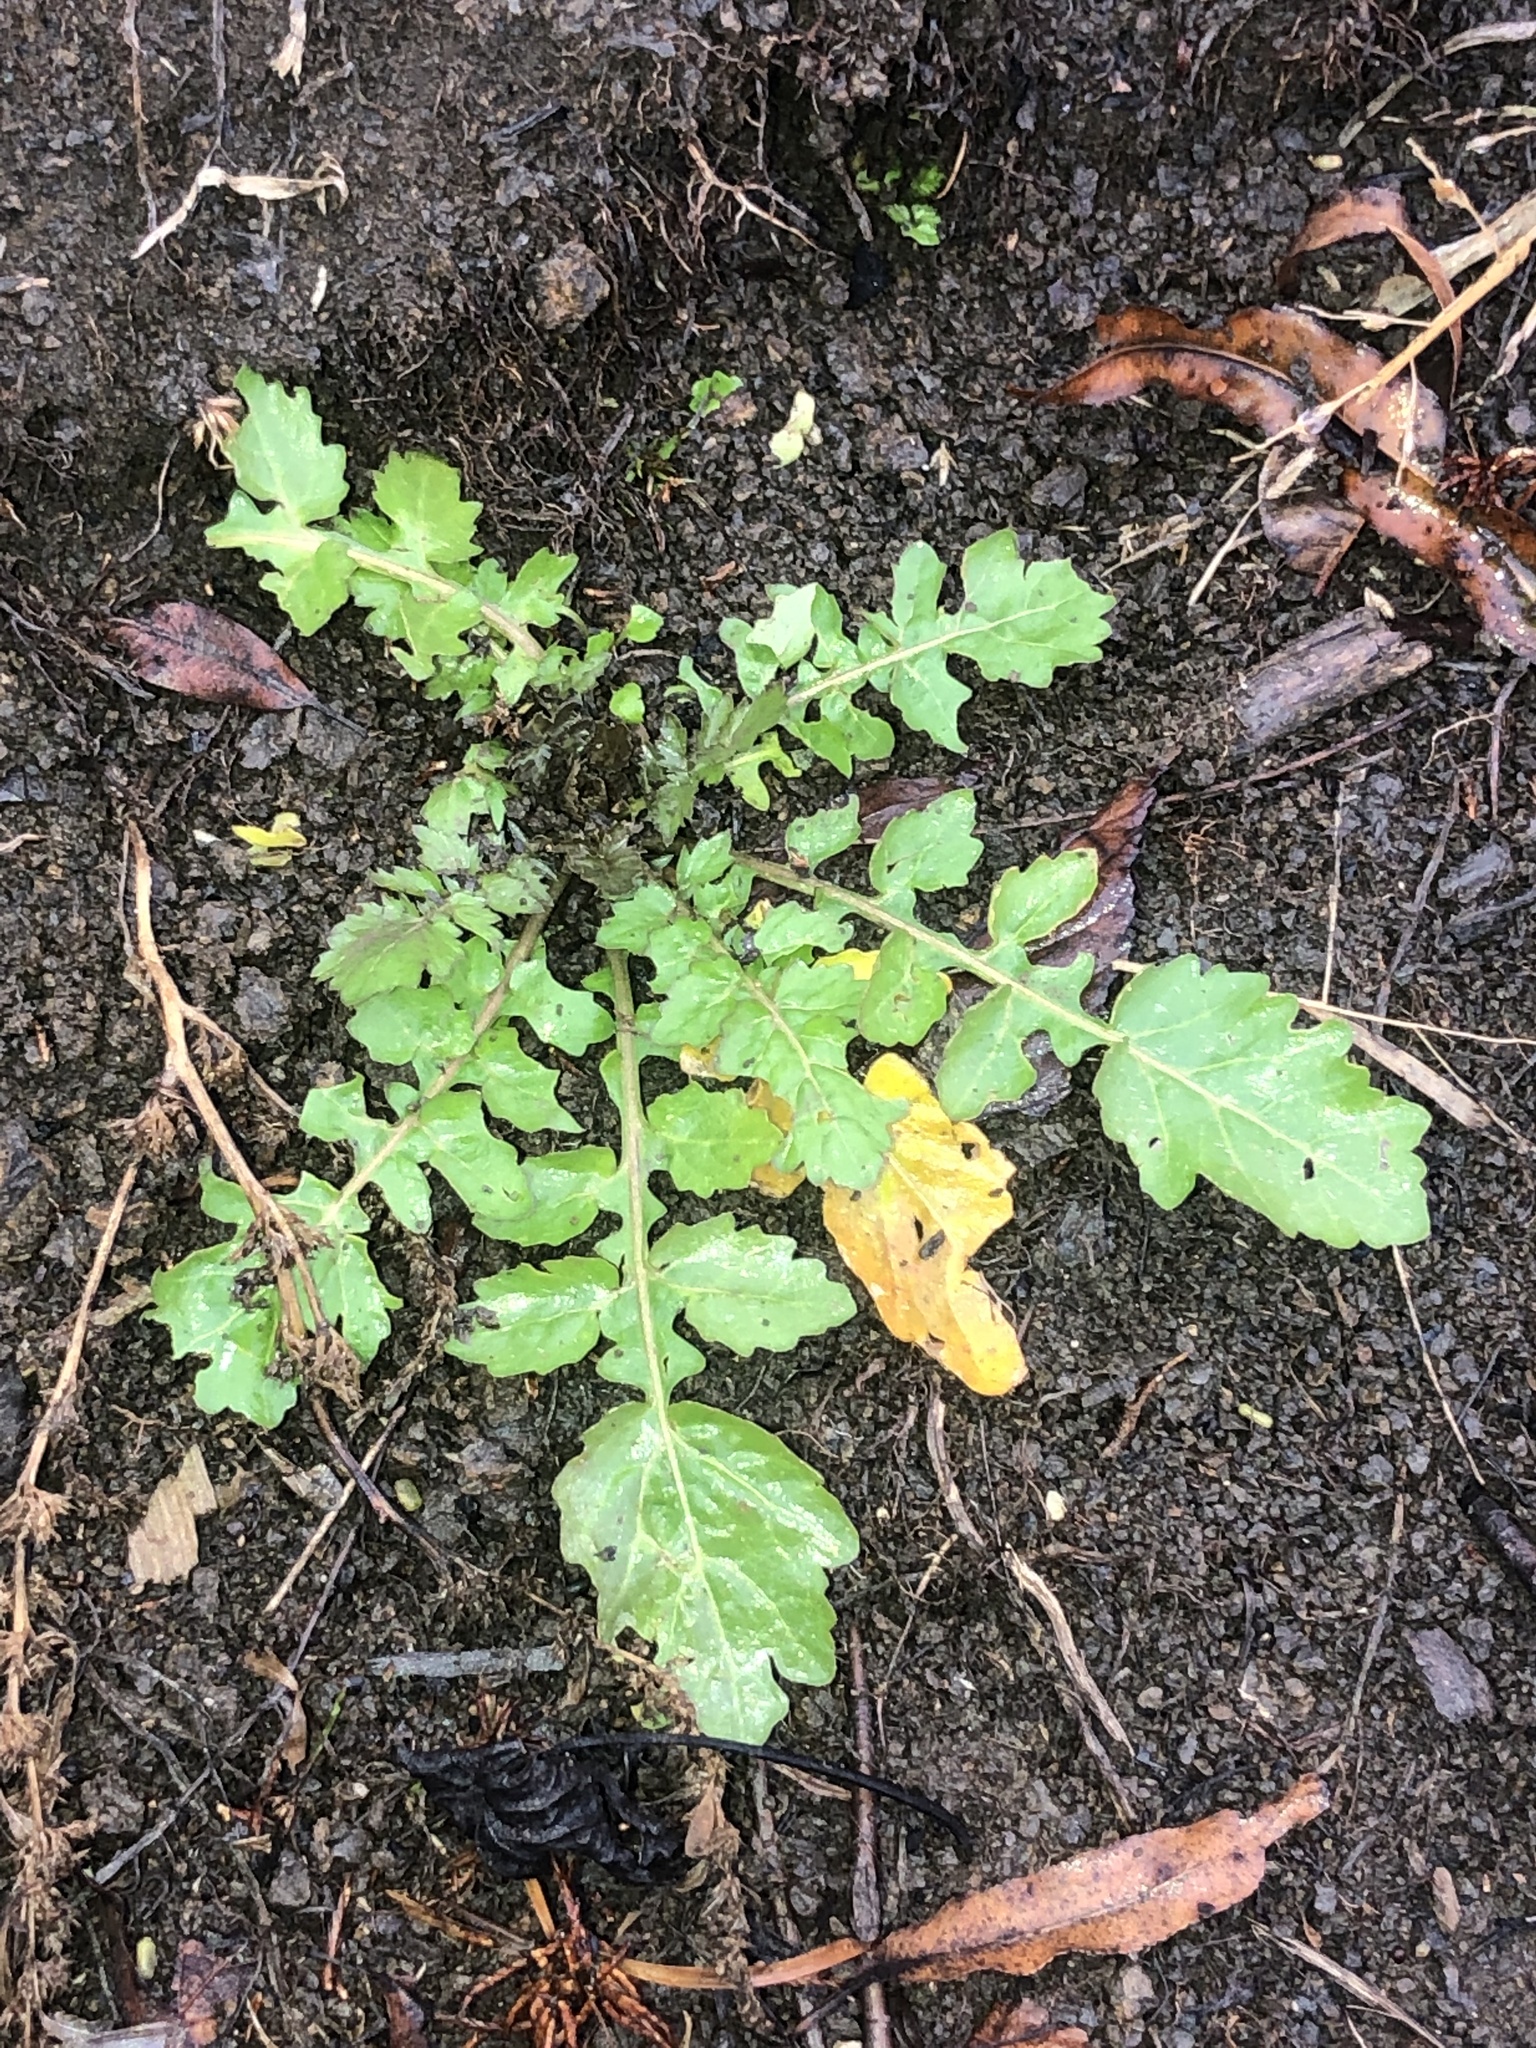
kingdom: Plantae
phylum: Tracheophyta
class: Magnoliopsida
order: Brassicales
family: Brassicaceae
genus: Rorippa
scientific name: Rorippa palustris
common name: Marsh yellow-cress
